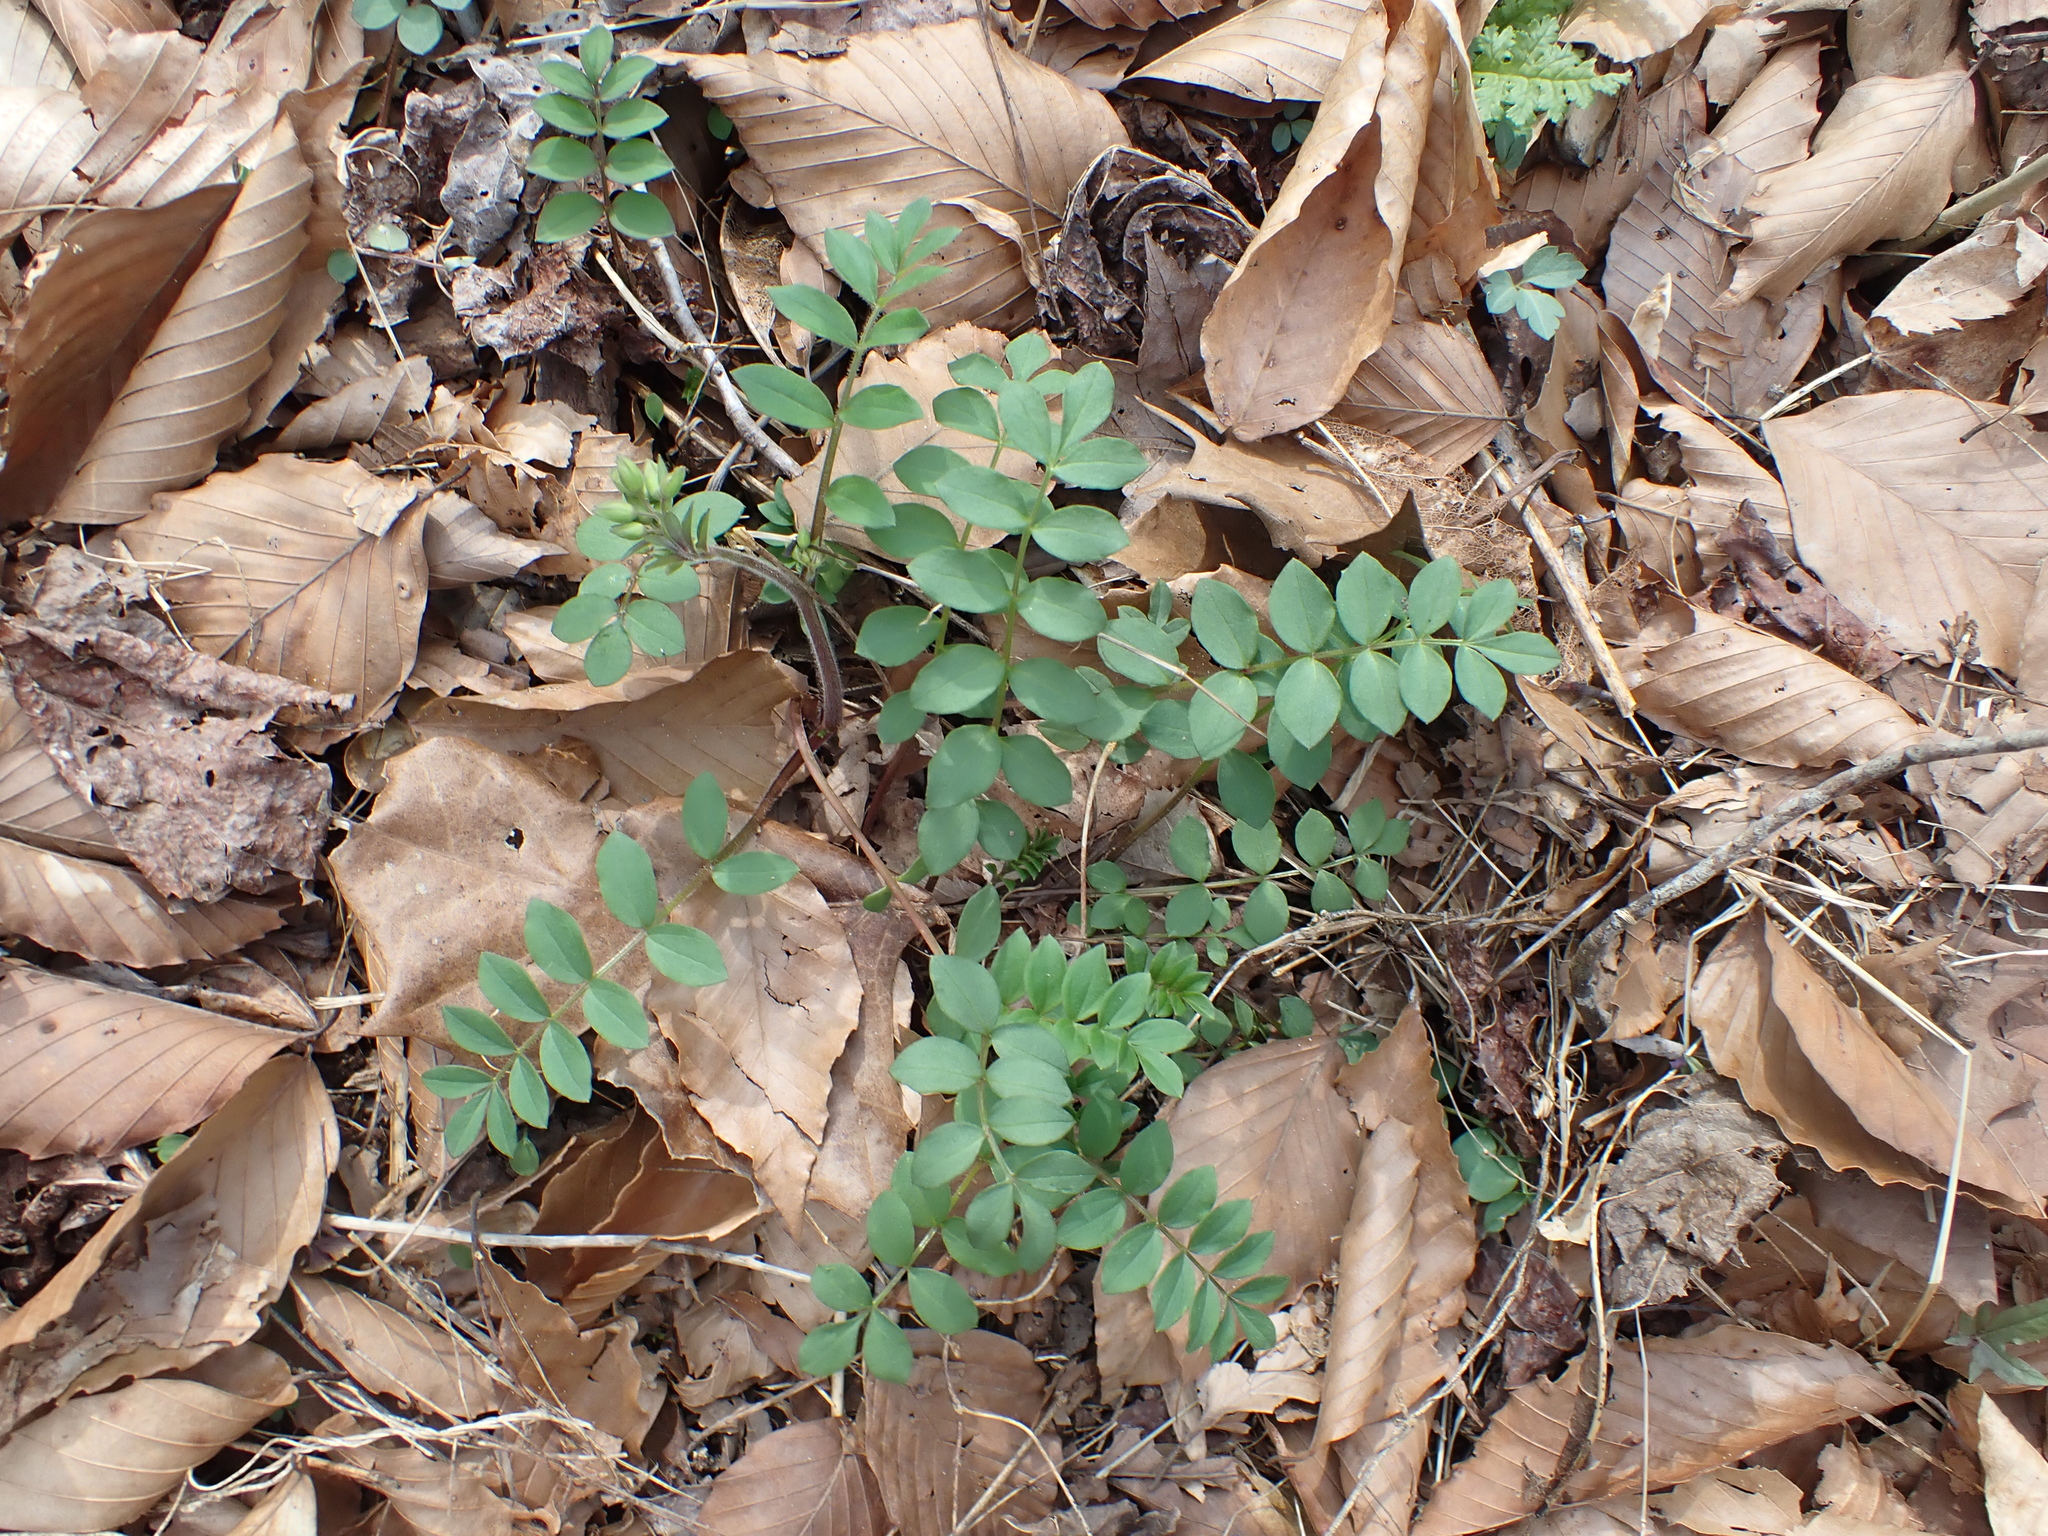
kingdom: Plantae
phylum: Tracheophyta
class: Magnoliopsida
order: Ericales
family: Polemoniaceae
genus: Polemonium
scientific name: Polemonium reptans
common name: Creeping jacob's-ladder
